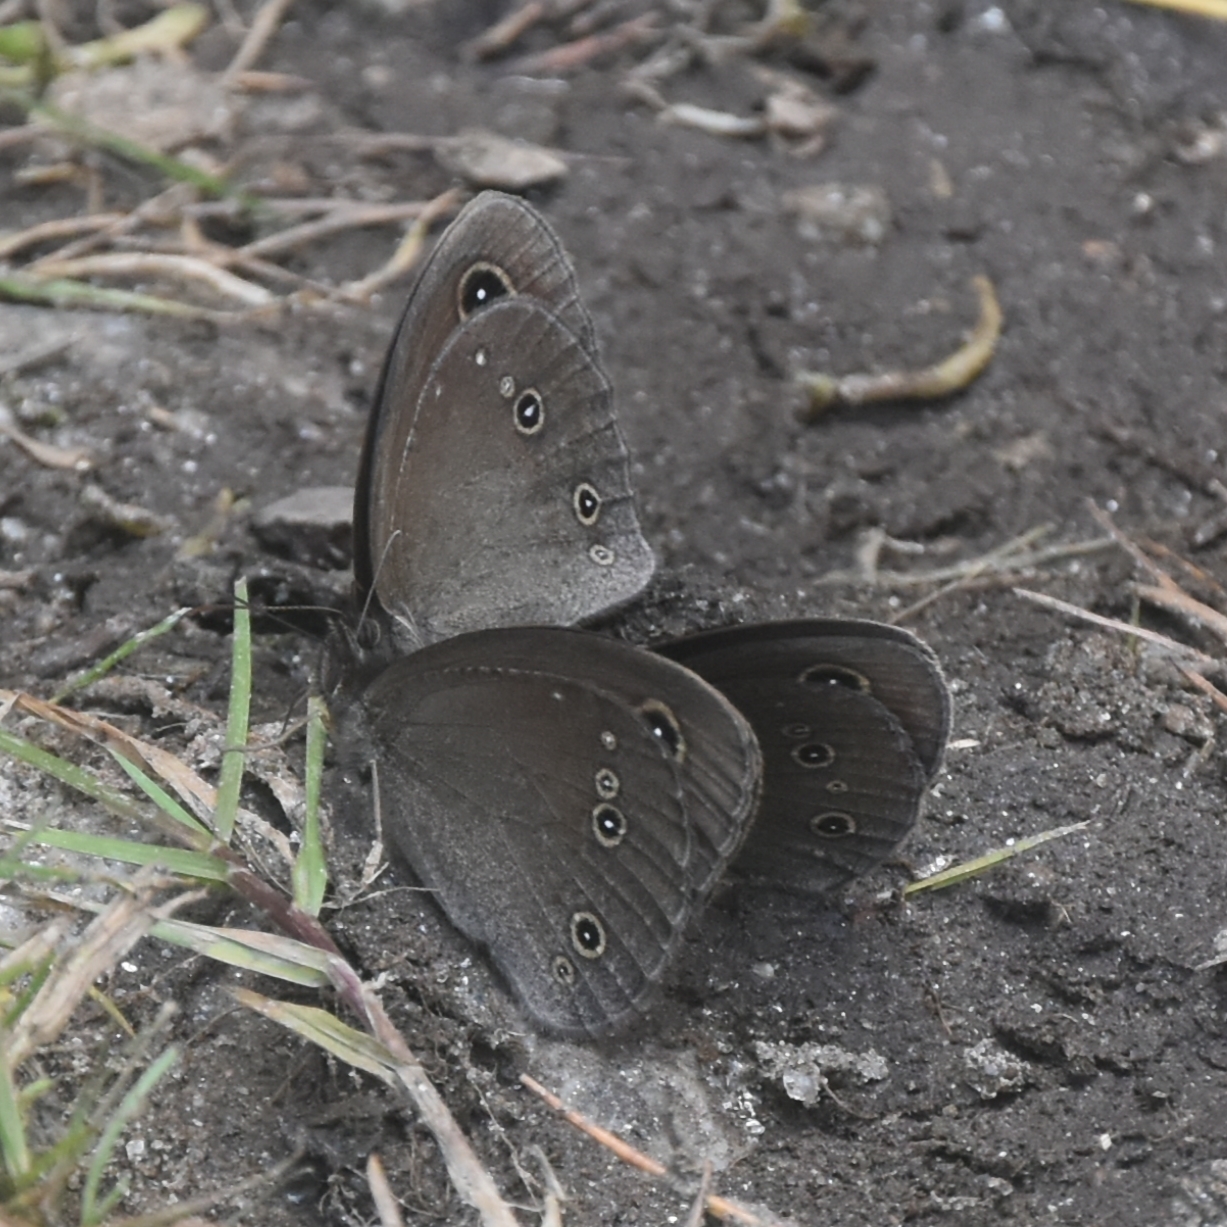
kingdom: Animalia
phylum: Arthropoda
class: Insecta
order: Lepidoptera
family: Nymphalidae
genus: Callerebia
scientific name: Callerebia nirmala
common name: Common argus
